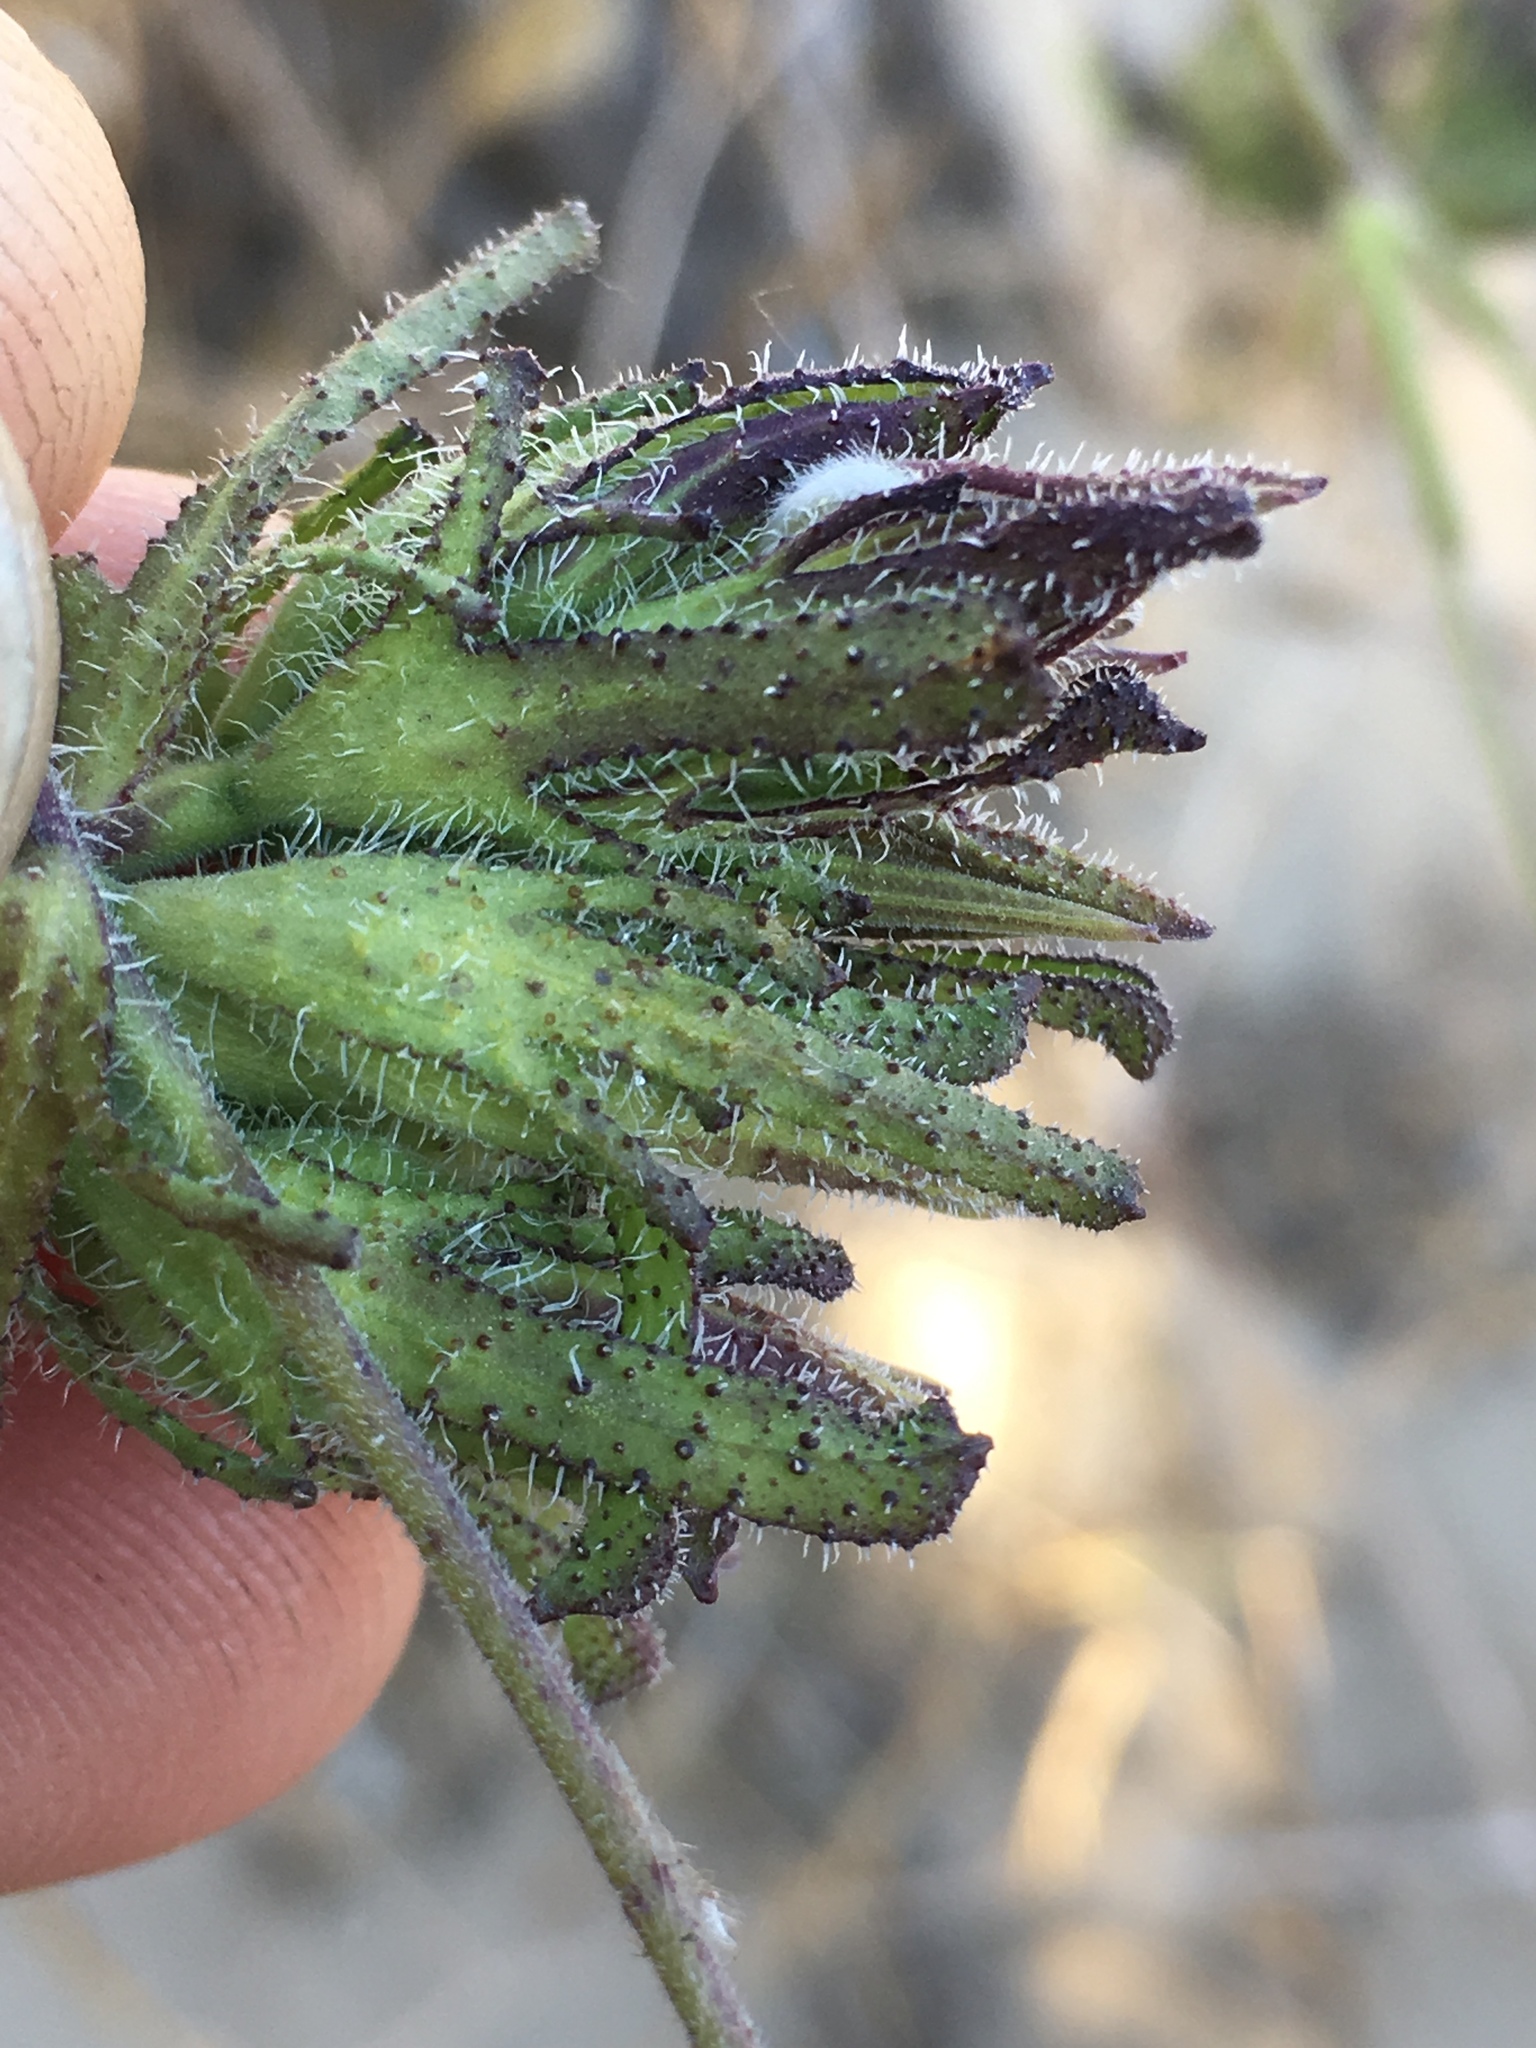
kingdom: Plantae
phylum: Tracheophyta
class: Magnoliopsida
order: Lamiales
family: Orobanchaceae
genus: Cordylanthus
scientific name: Cordylanthus rigidus
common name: Stiff-branch bird's-beak
